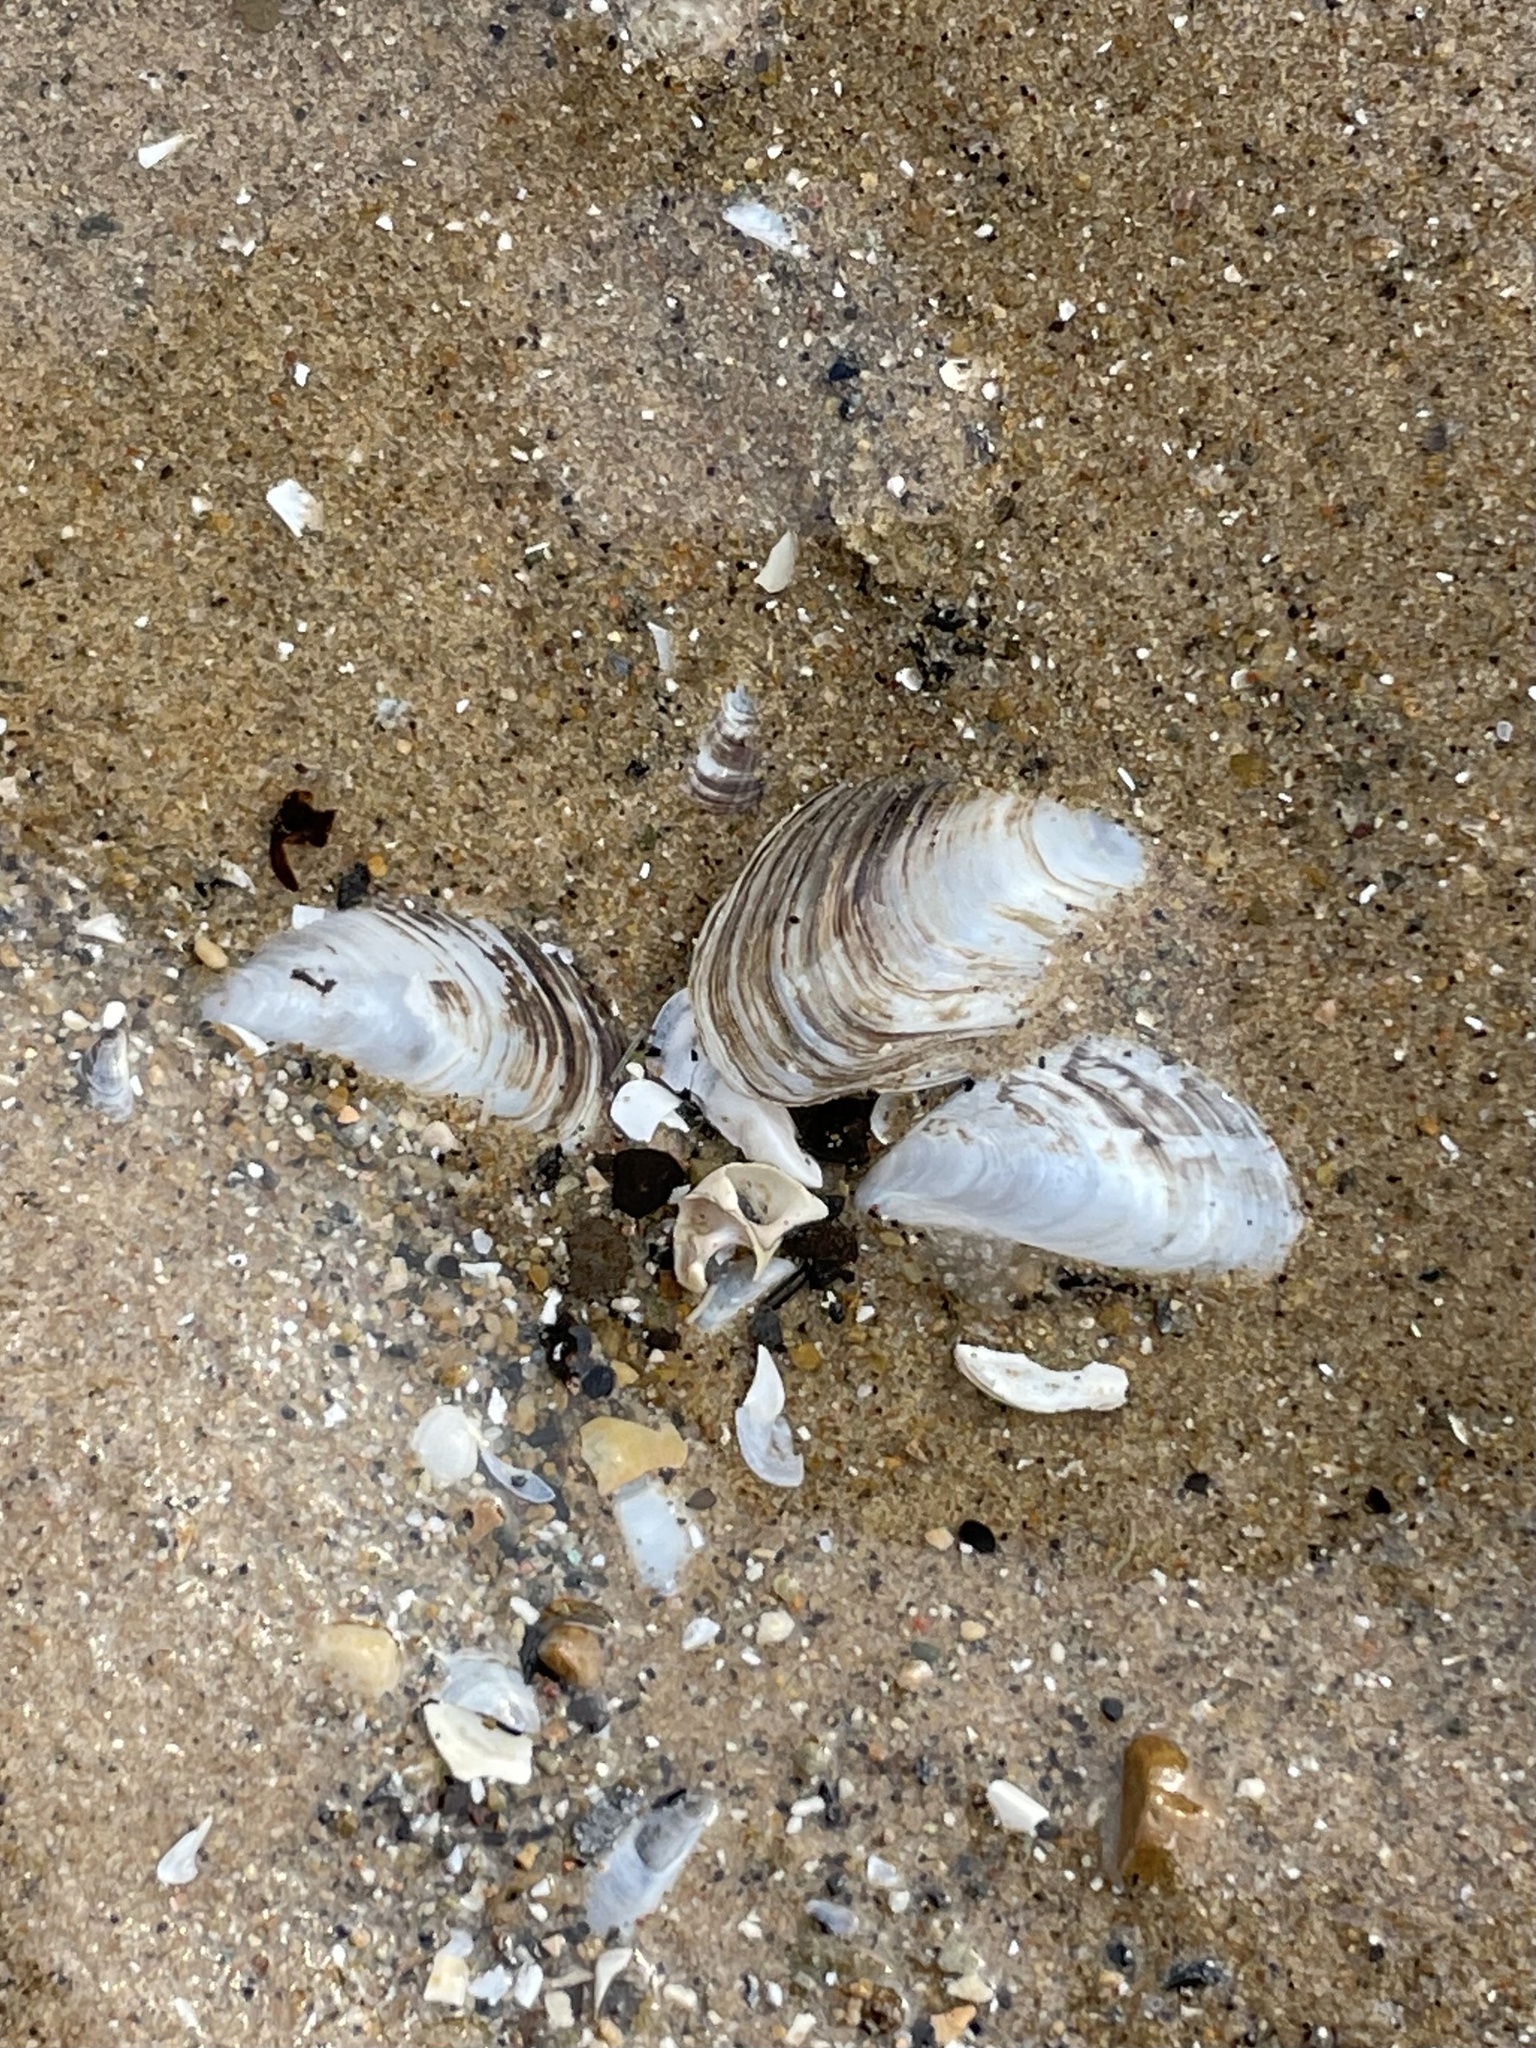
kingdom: Animalia
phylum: Mollusca
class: Bivalvia
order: Myida
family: Dreissenidae
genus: Dreissena
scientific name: Dreissena bugensis
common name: Quagga mussel
